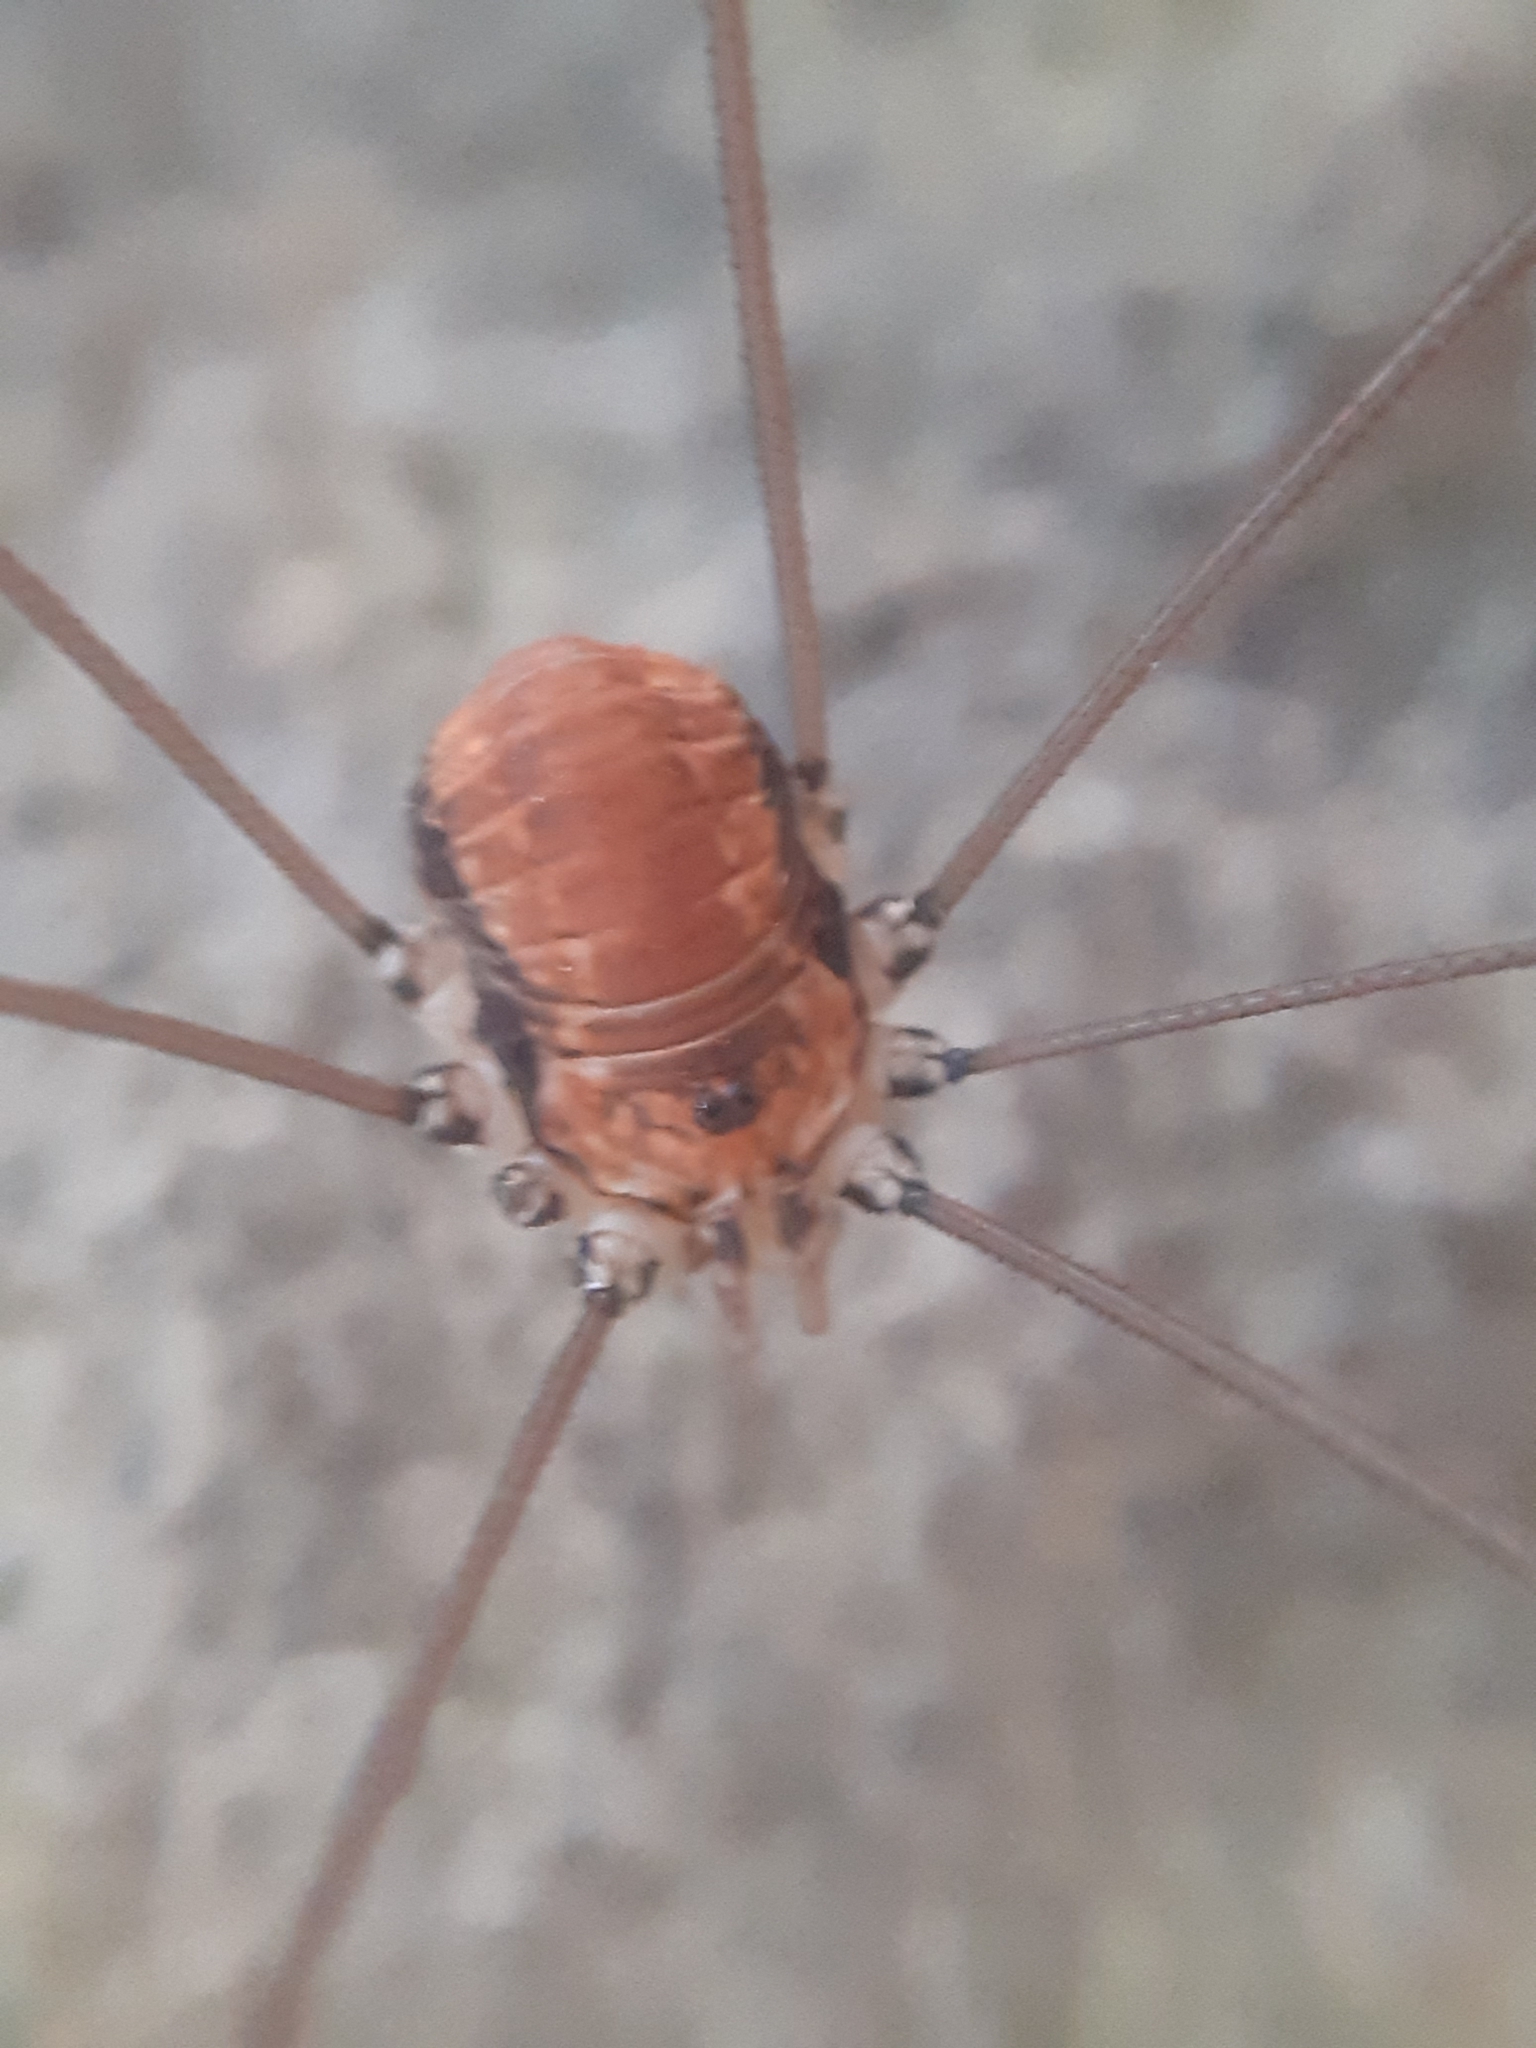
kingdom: Animalia
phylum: Arthropoda
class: Arachnida
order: Opiliones
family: Sclerosomatidae
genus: Leiobunum
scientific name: Leiobunum limbatum
